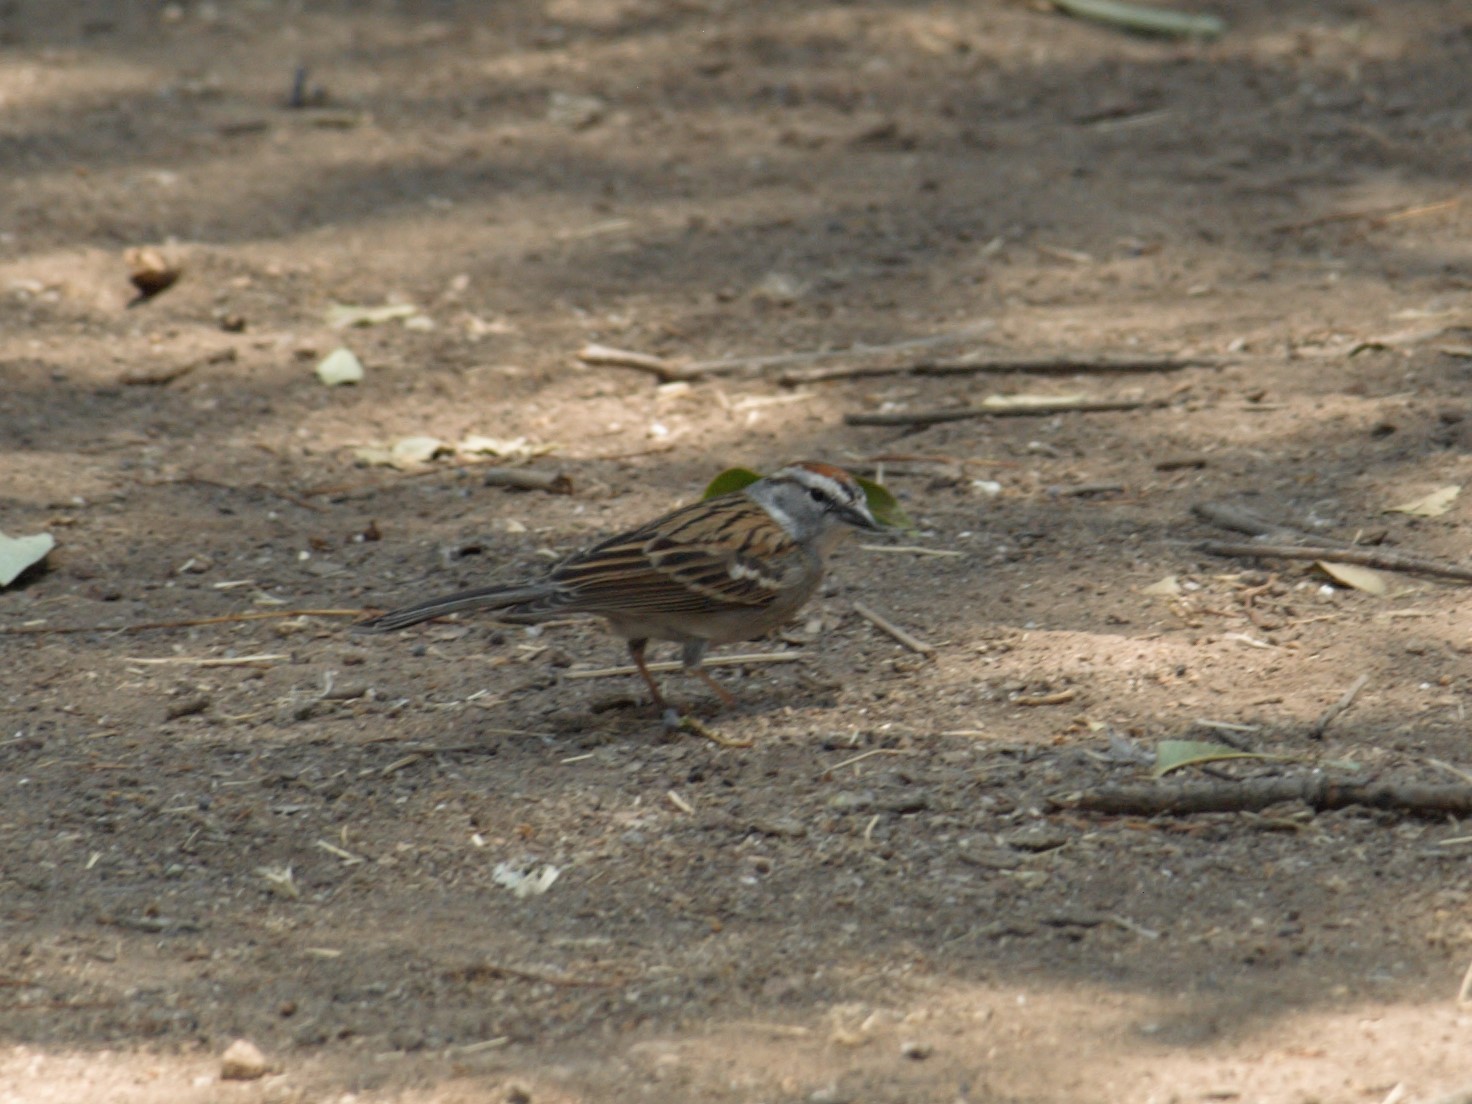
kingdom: Animalia
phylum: Chordata
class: Aves
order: Passeriformes
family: Passerellidae
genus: Spizella
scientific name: Spizella passerina
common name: Chipping sparrow
